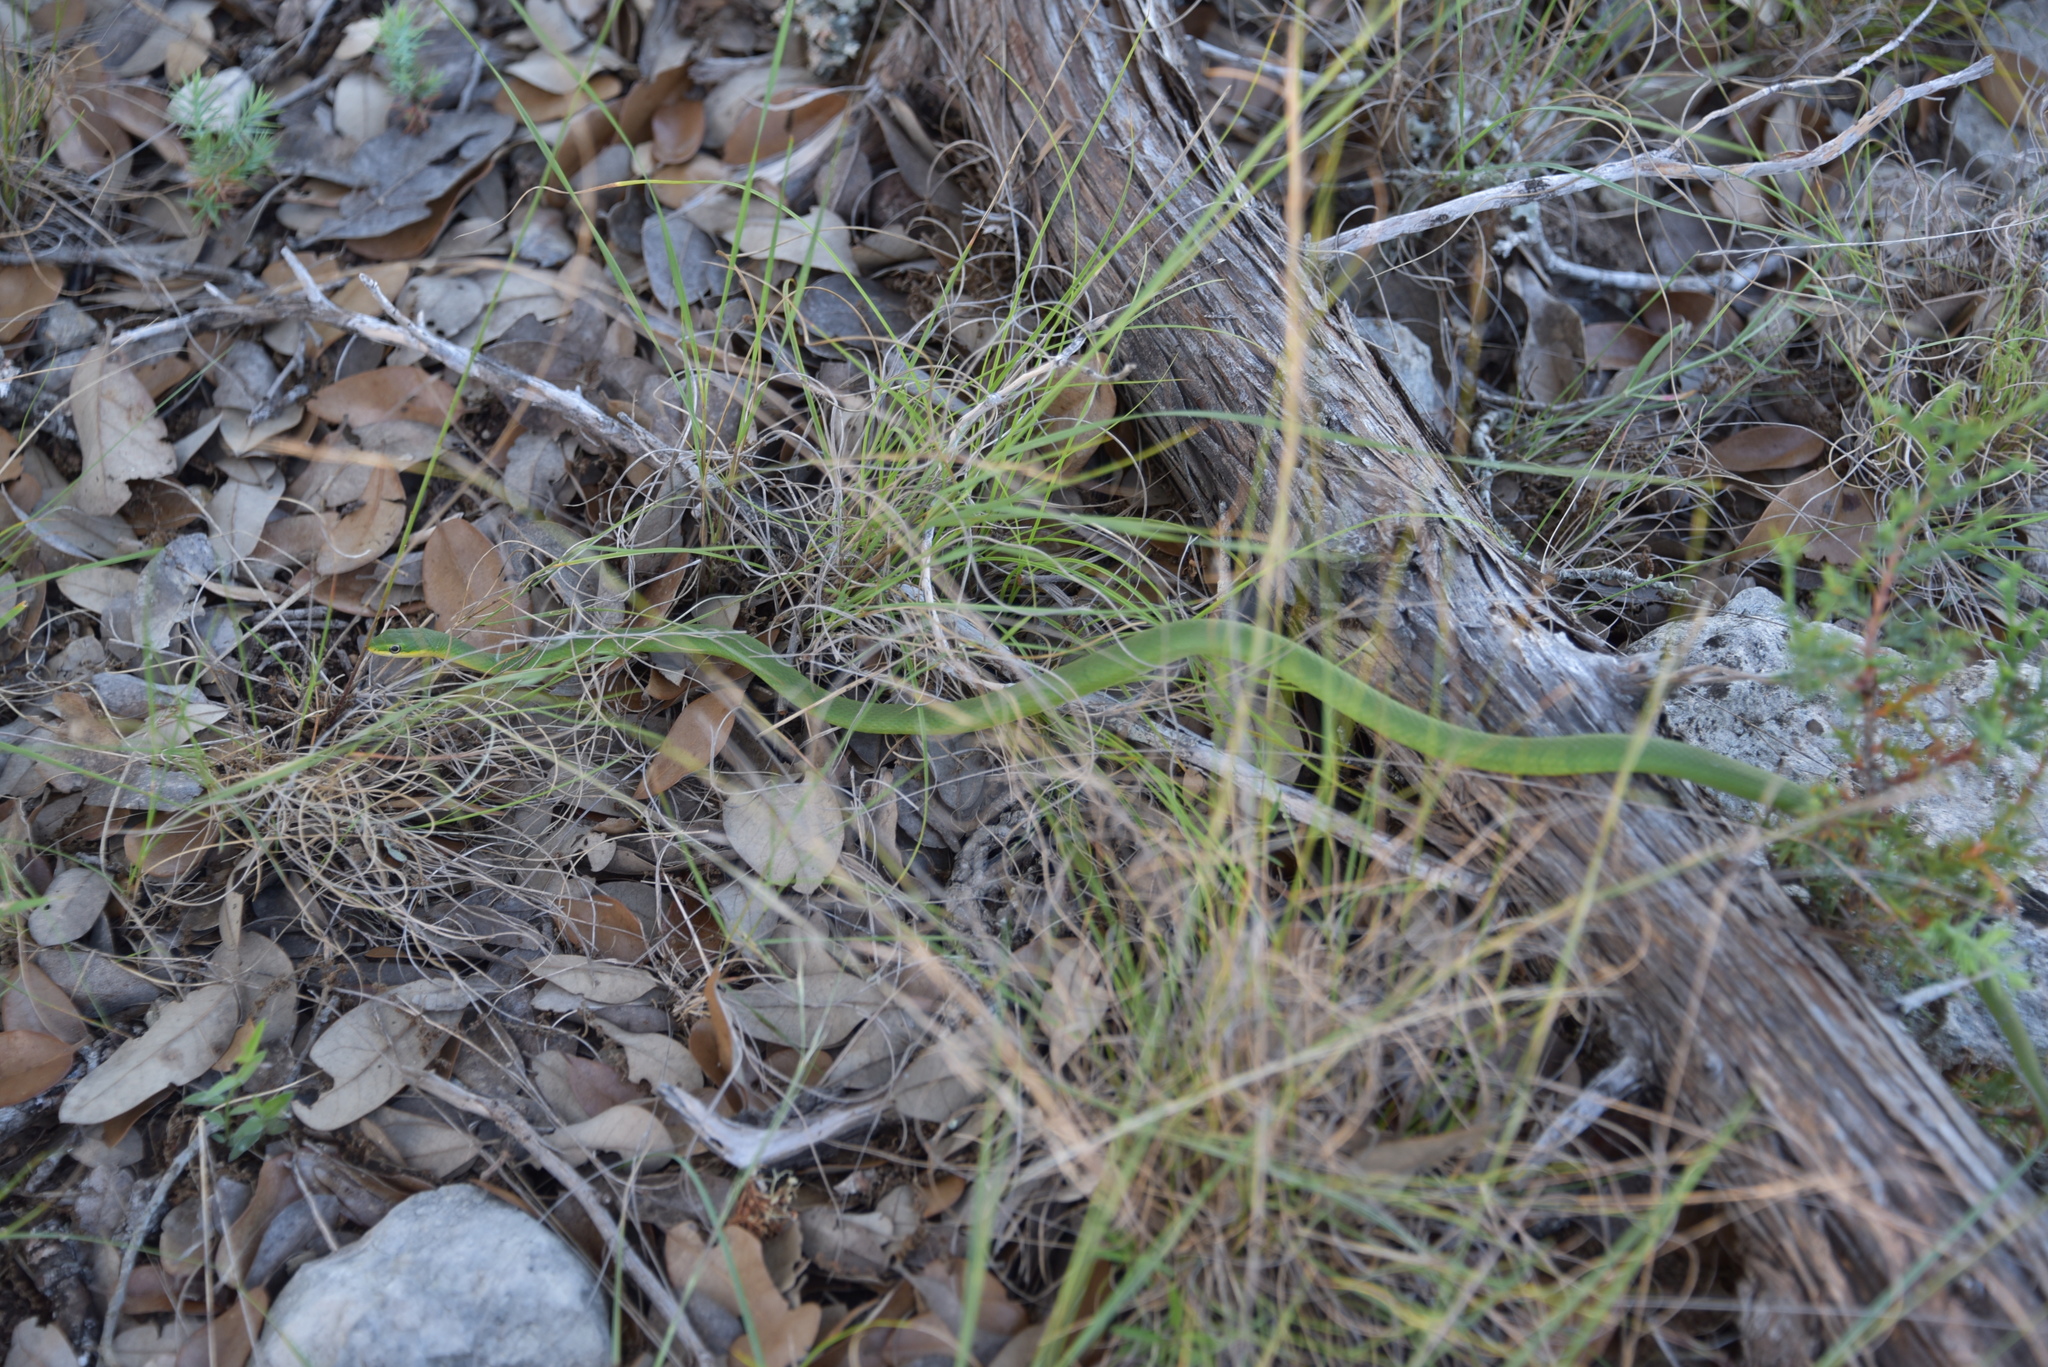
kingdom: Animalia
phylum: Chordata
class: Squamata
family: Colubridae
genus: Opheodrys
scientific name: Opheodrys aestivus
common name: Rough greensnake
